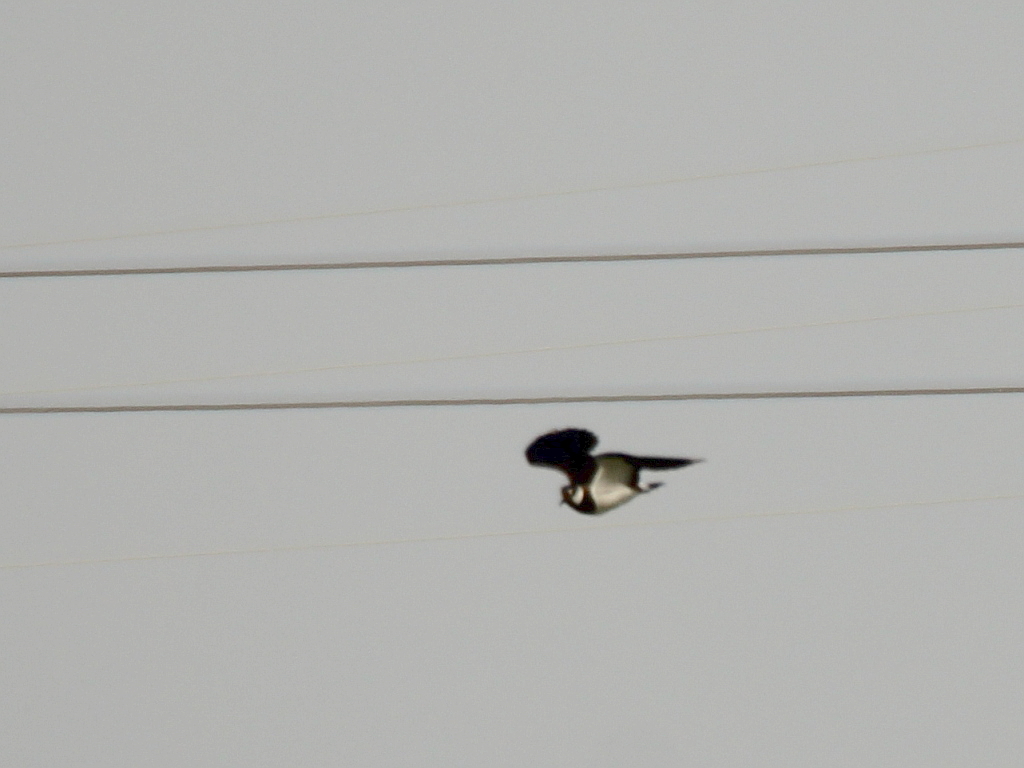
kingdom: Animalia
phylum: Chordata
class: Aves
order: Charadriiformes
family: Charadriidae
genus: Vanellus
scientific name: Vanellus vanellus
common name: Northern lapwing
